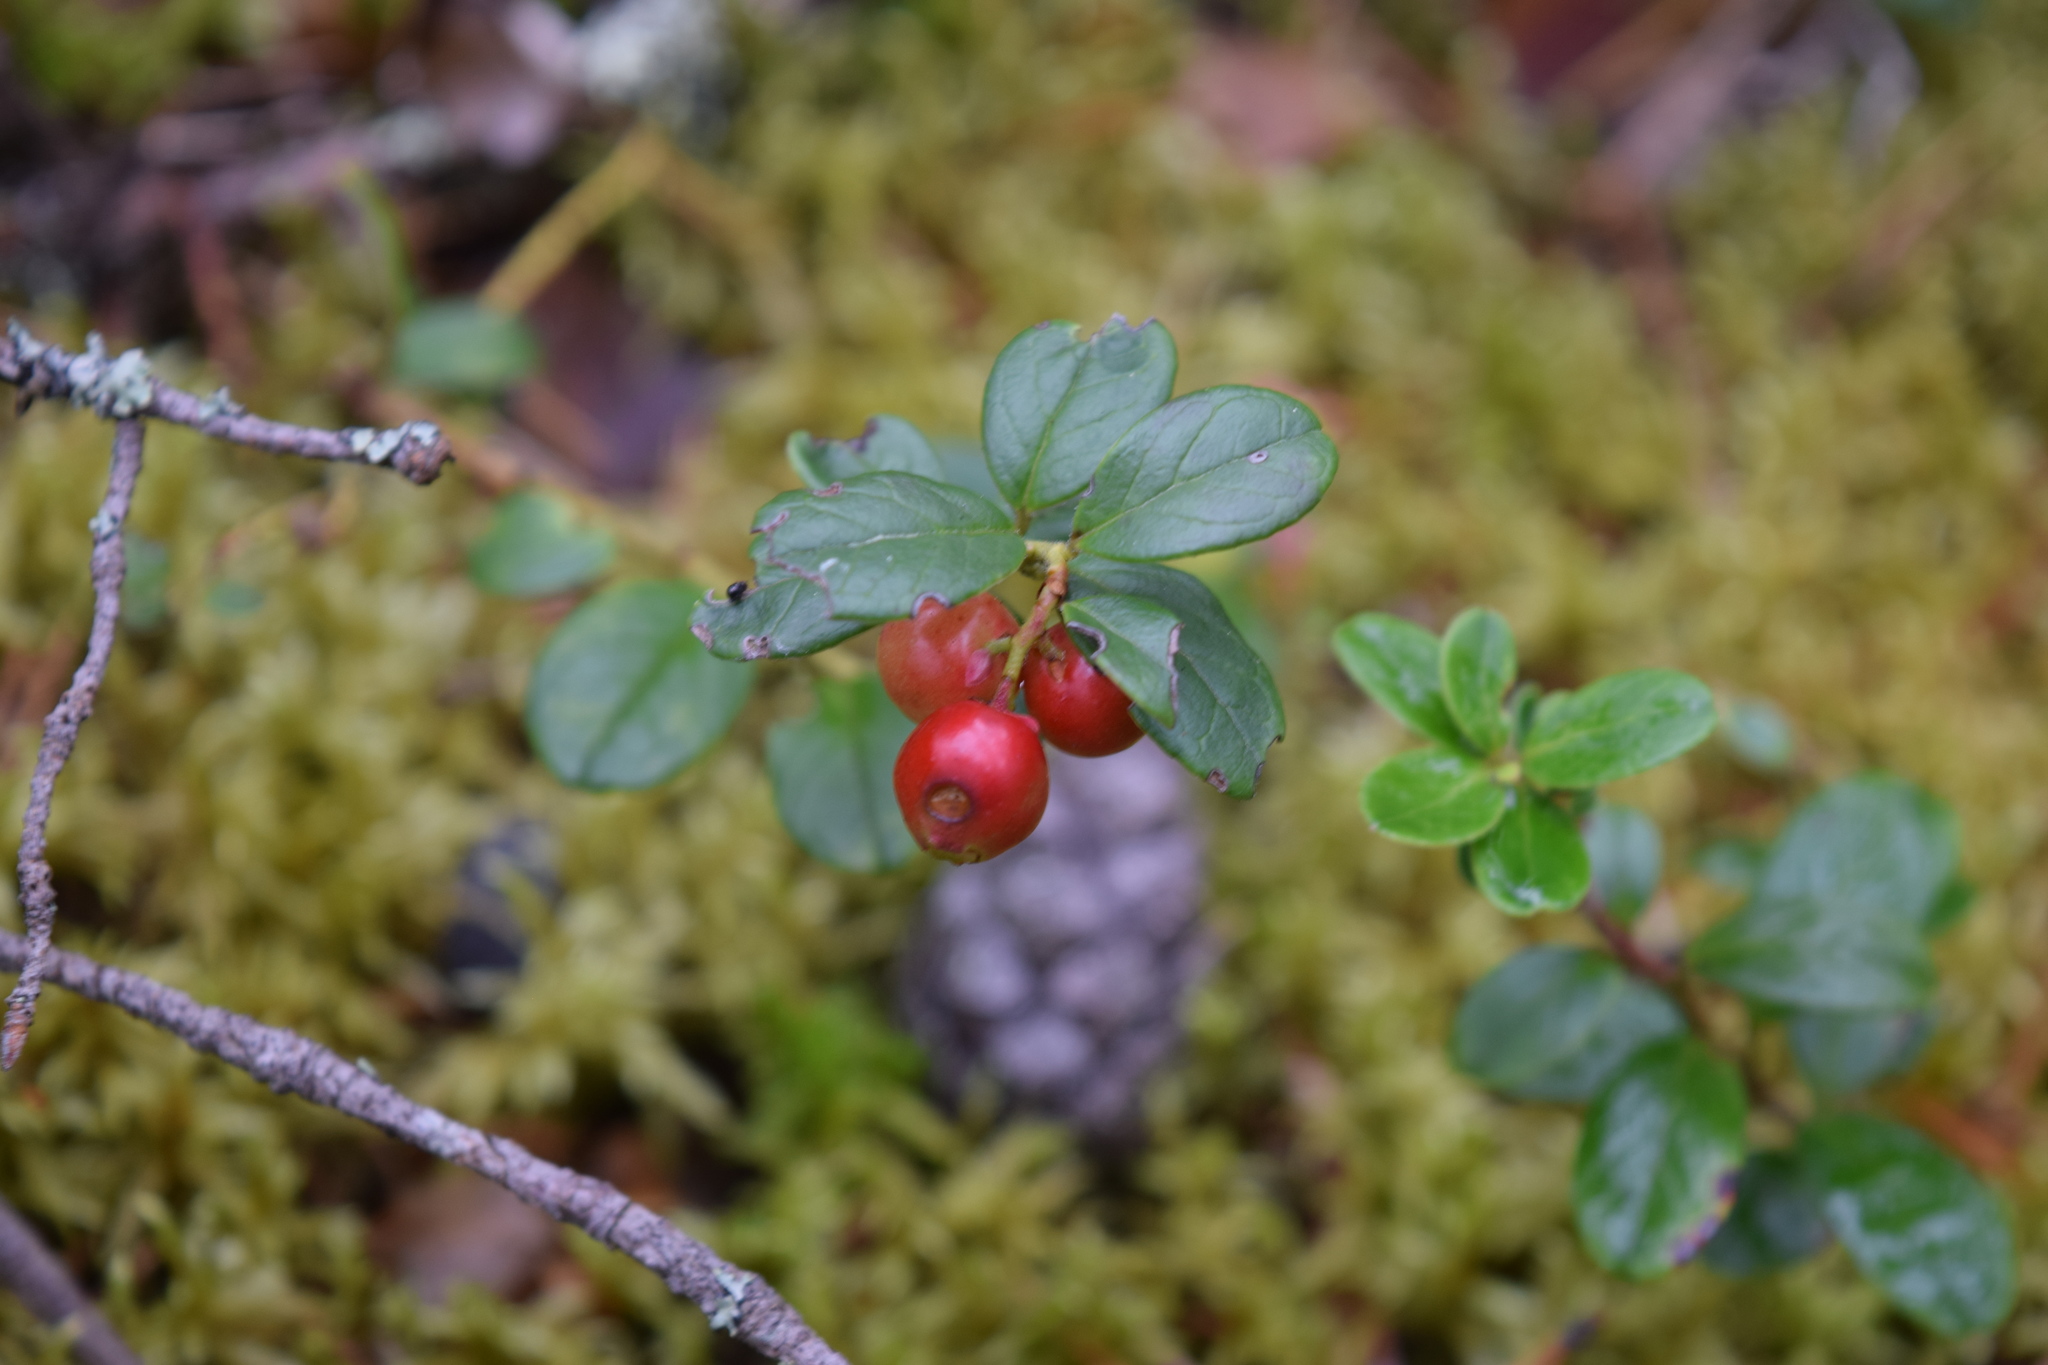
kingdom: Plantae
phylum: Tracheophyta
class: Magnoliopsida
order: Ericales
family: Ericaceae
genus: Vaccinium
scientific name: Vaccinium vitis-idaea
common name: Cowberry
